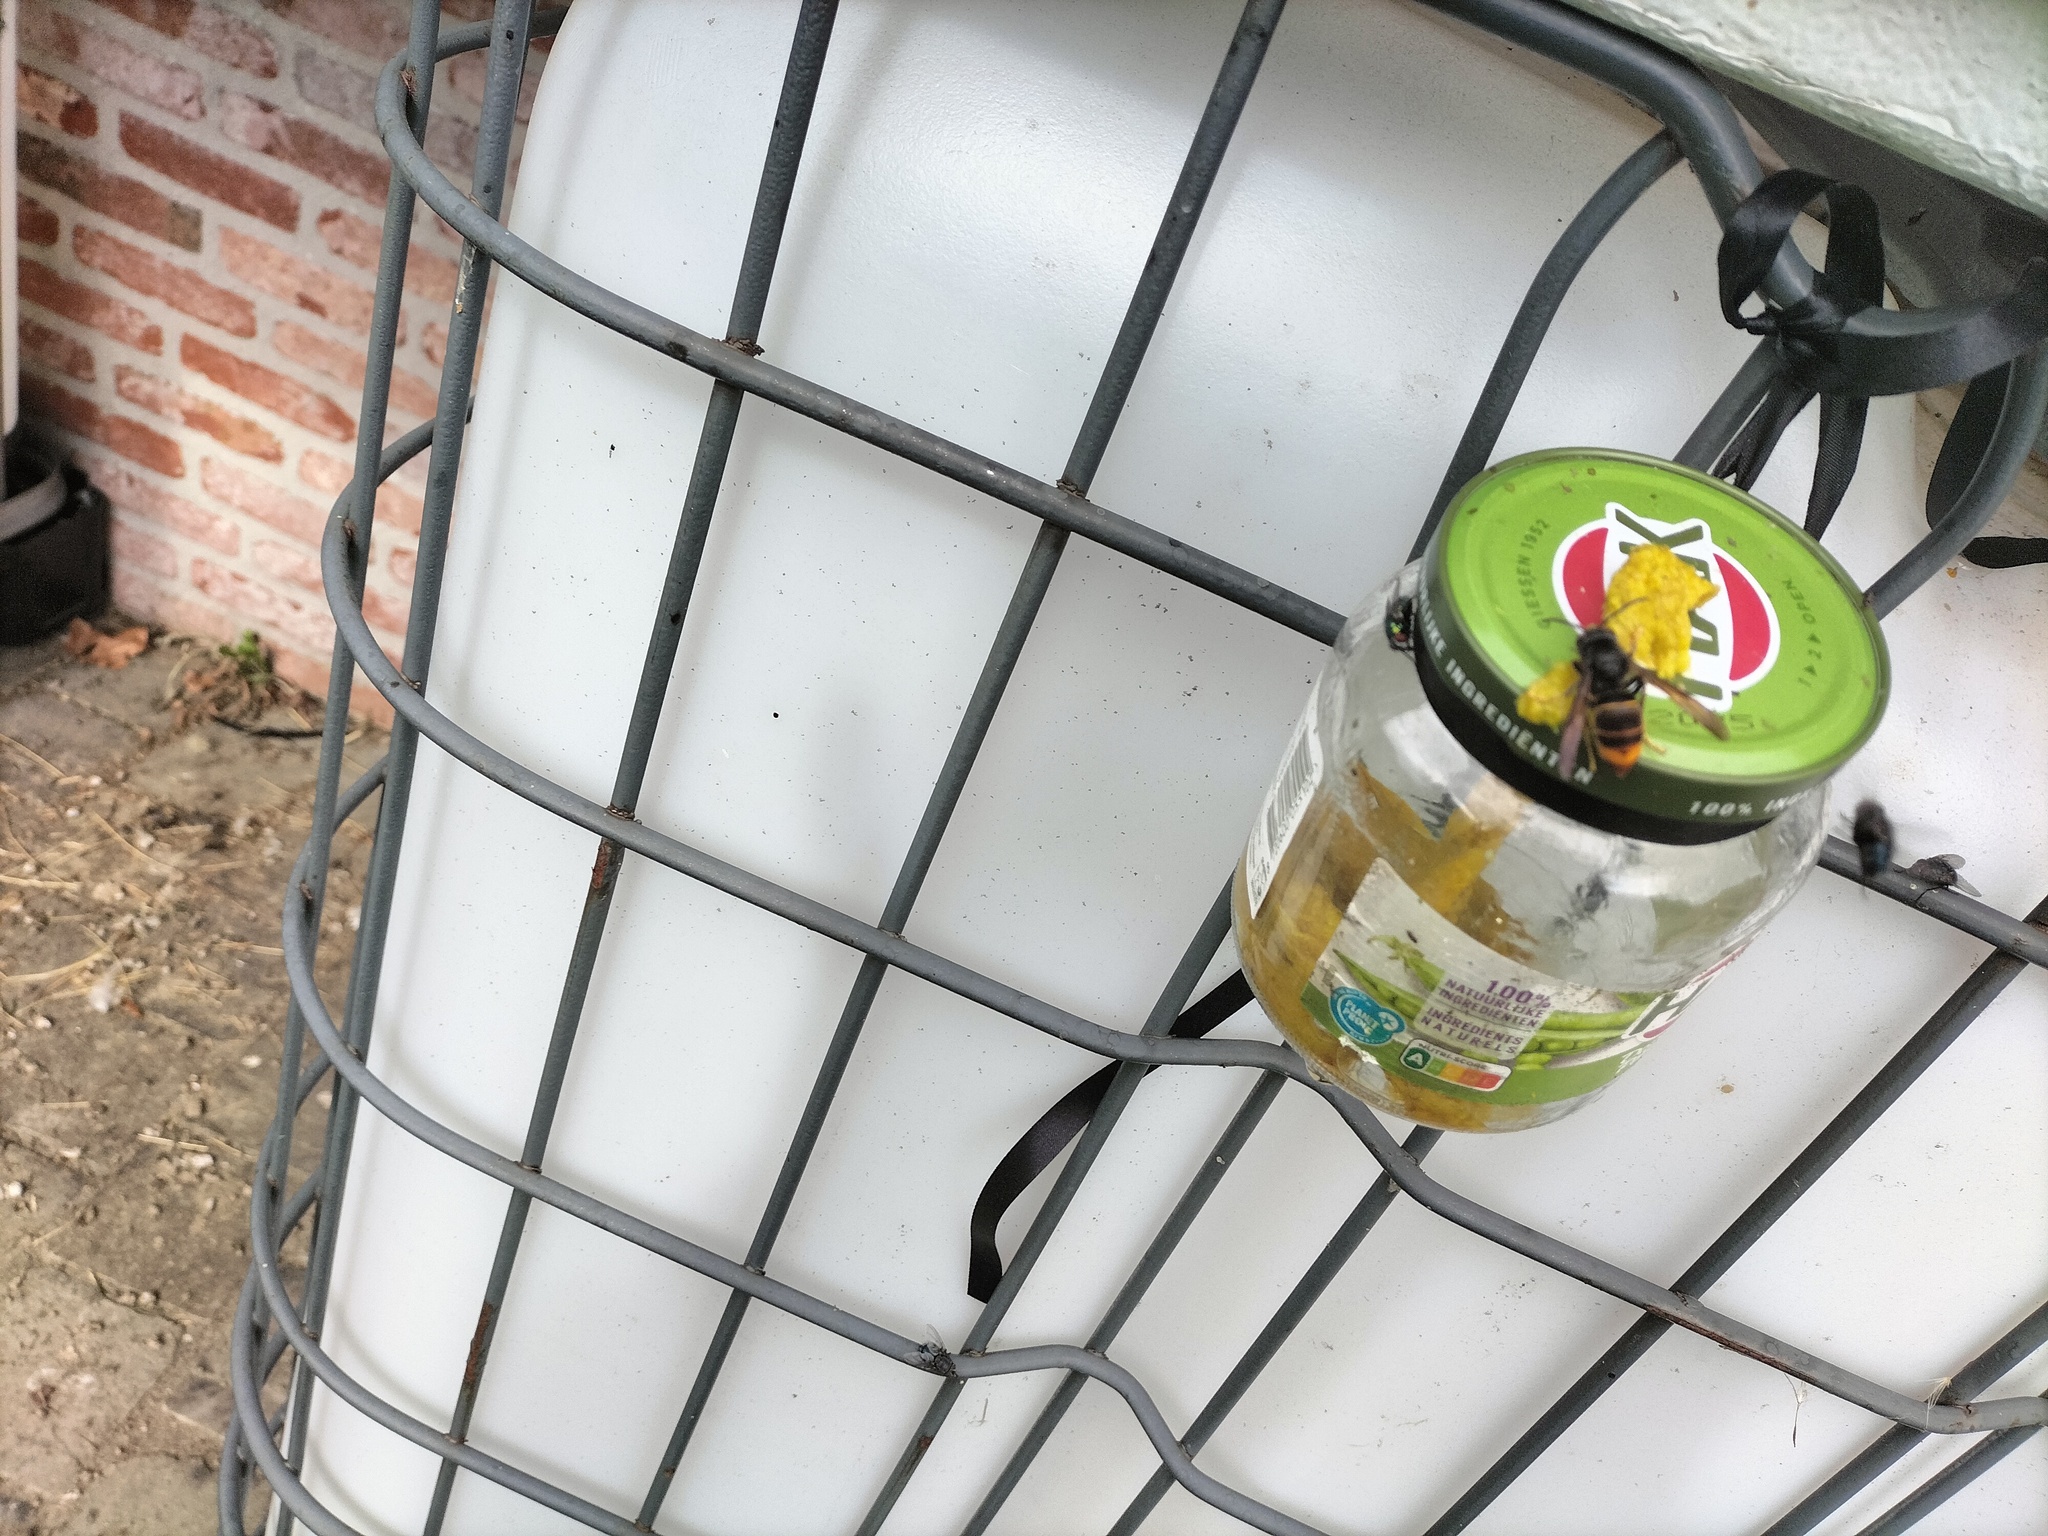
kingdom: Animalia
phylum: Arthropoda
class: Insecta
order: Hymenoptera
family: Vespidae
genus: Vespa
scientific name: Vespa velutina
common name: Asian hornet
